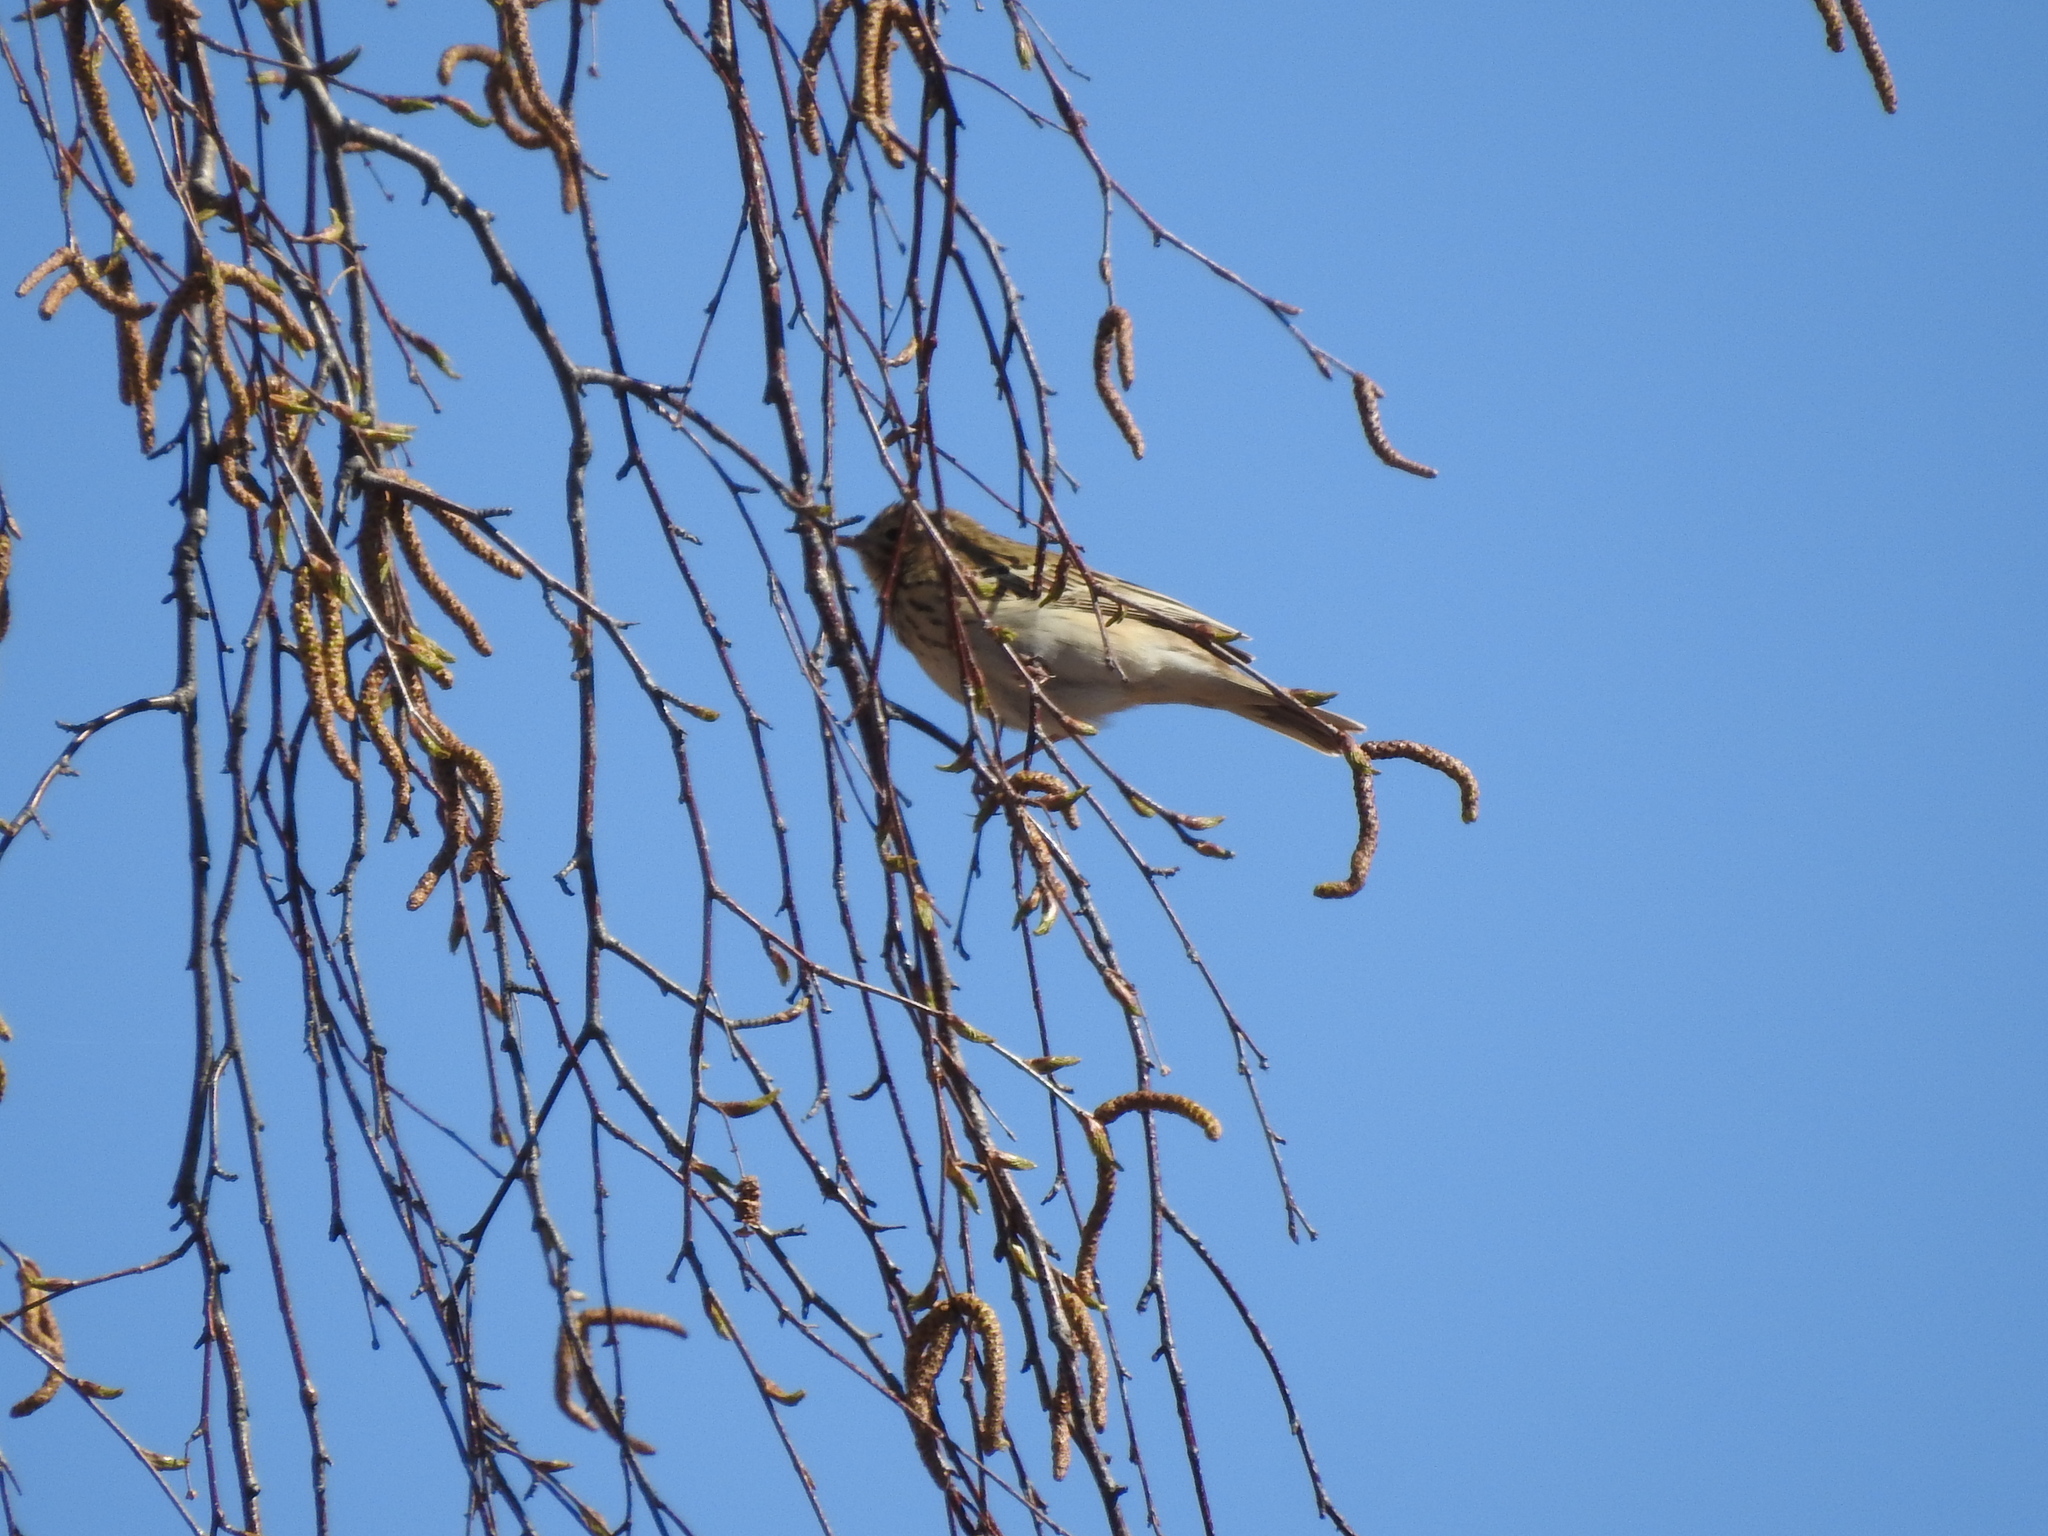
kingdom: Animalia
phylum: Chordata
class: Aves
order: Passeriformes
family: Motacillidae
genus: Anthus
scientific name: Anthus trivialis
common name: Tree pipit
